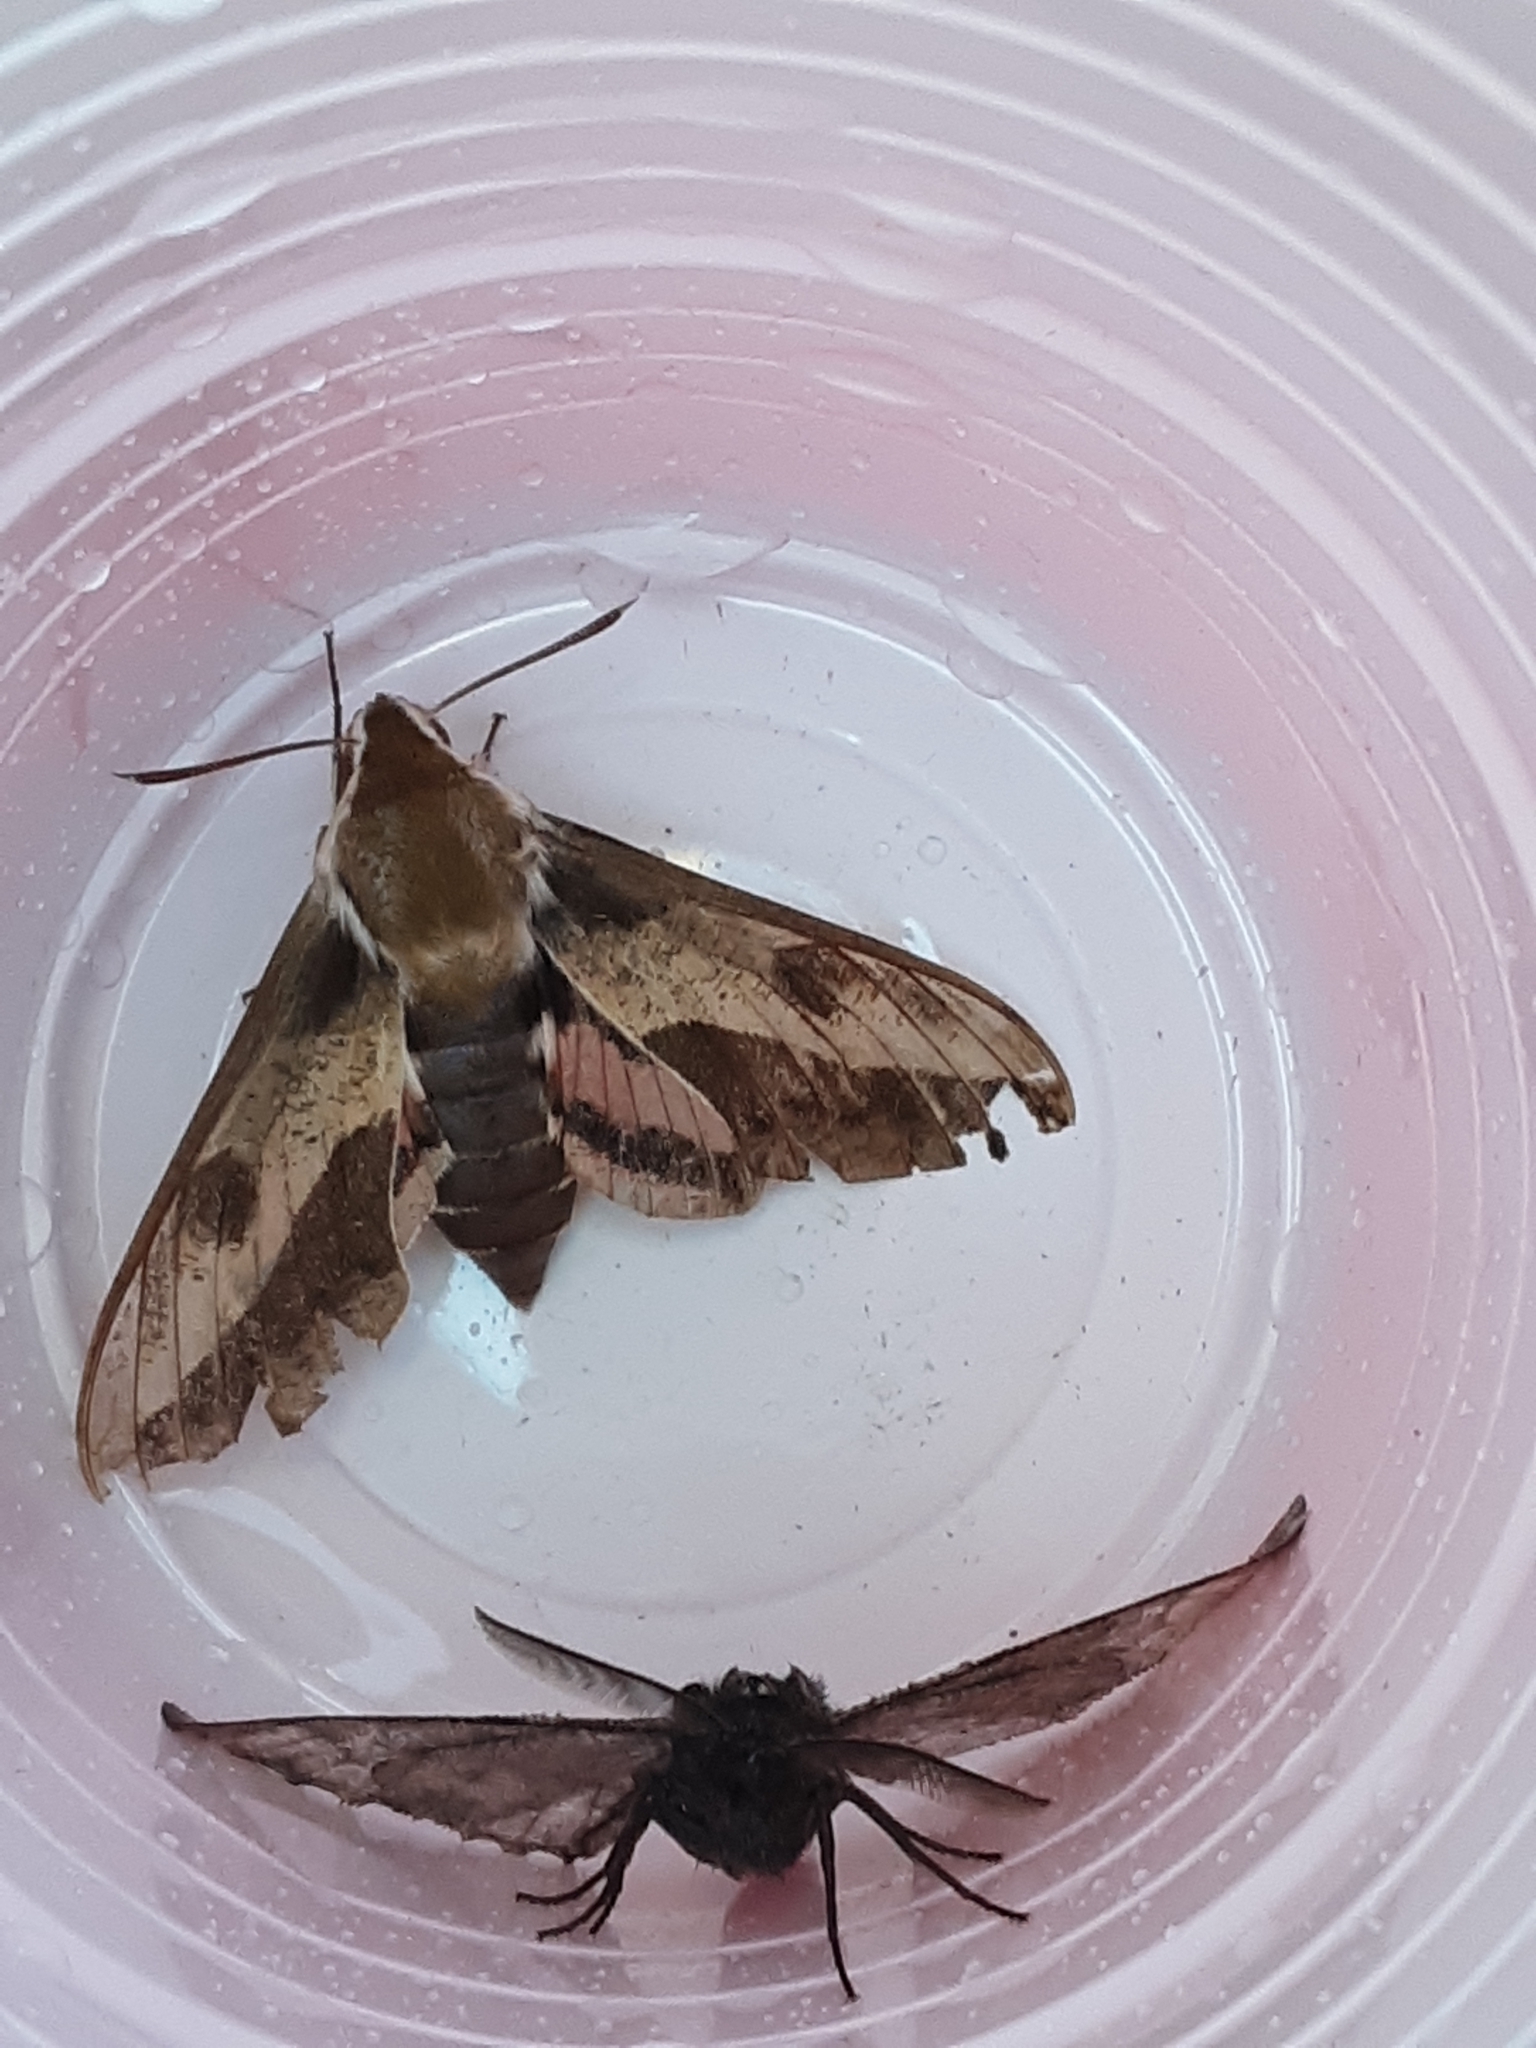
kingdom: Animalia
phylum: Arthropoda
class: Insecta
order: Lepidoptera
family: Sphingidae
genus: Hyles
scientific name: Hyles euphorbiae
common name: Spurge hawk-moth
